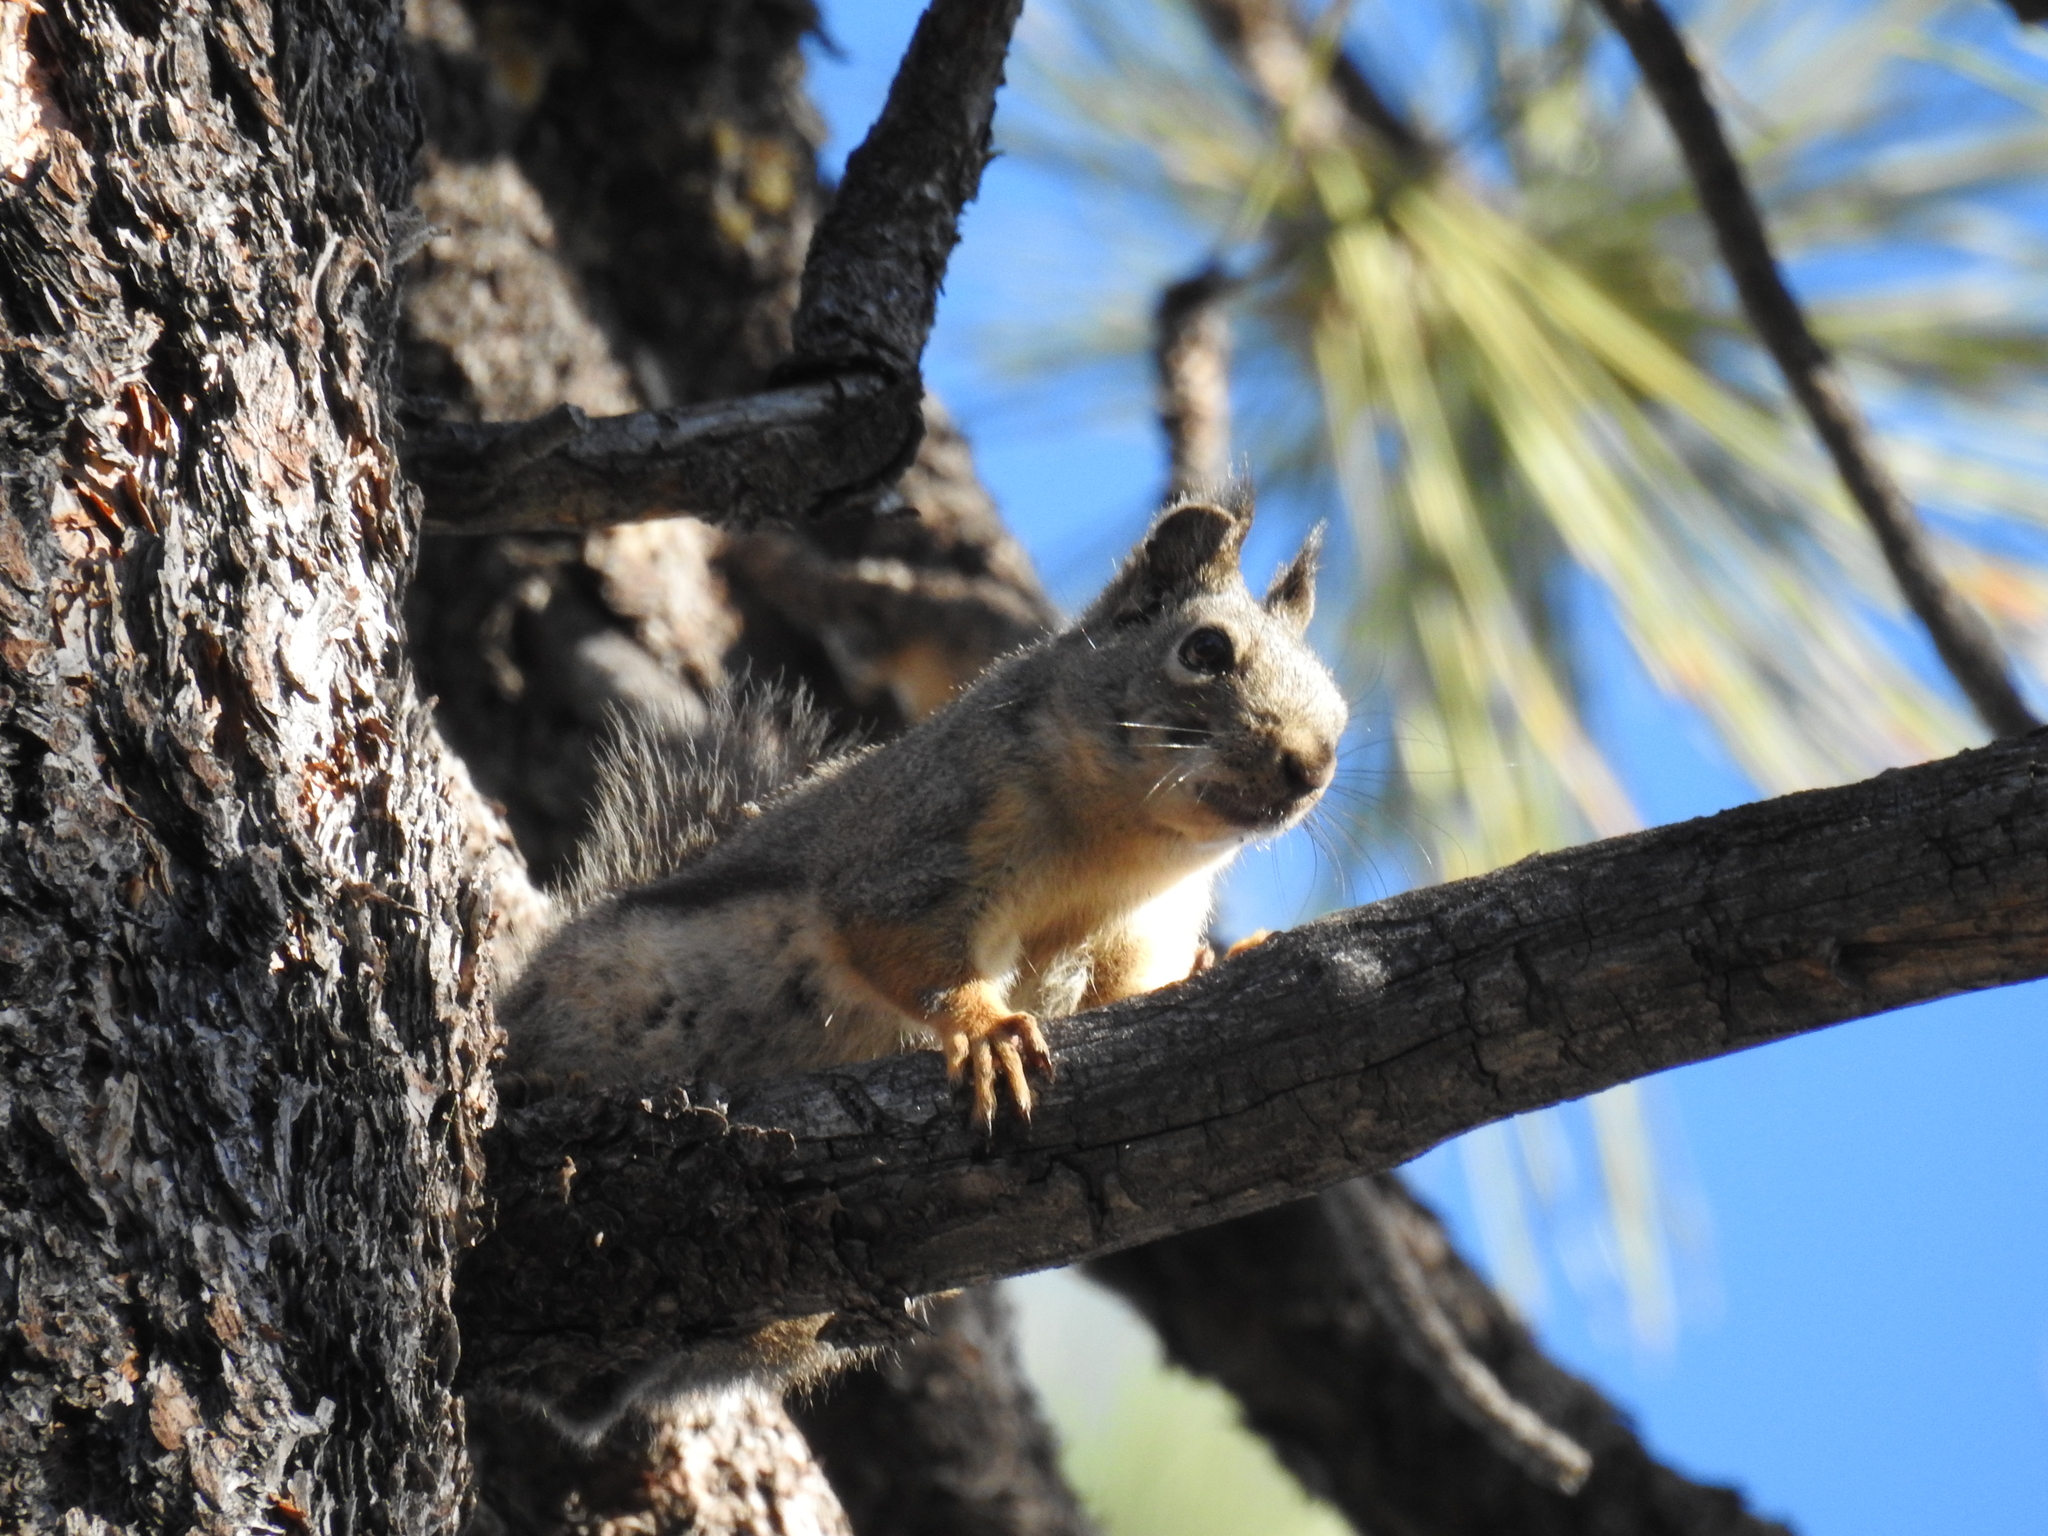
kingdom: Animalia
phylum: Chordata
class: Mammalia
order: Rodentia
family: Sciuridae
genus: Tamiasciurus
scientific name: Tamiasciurus douglasii
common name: Douglas's squirrel
